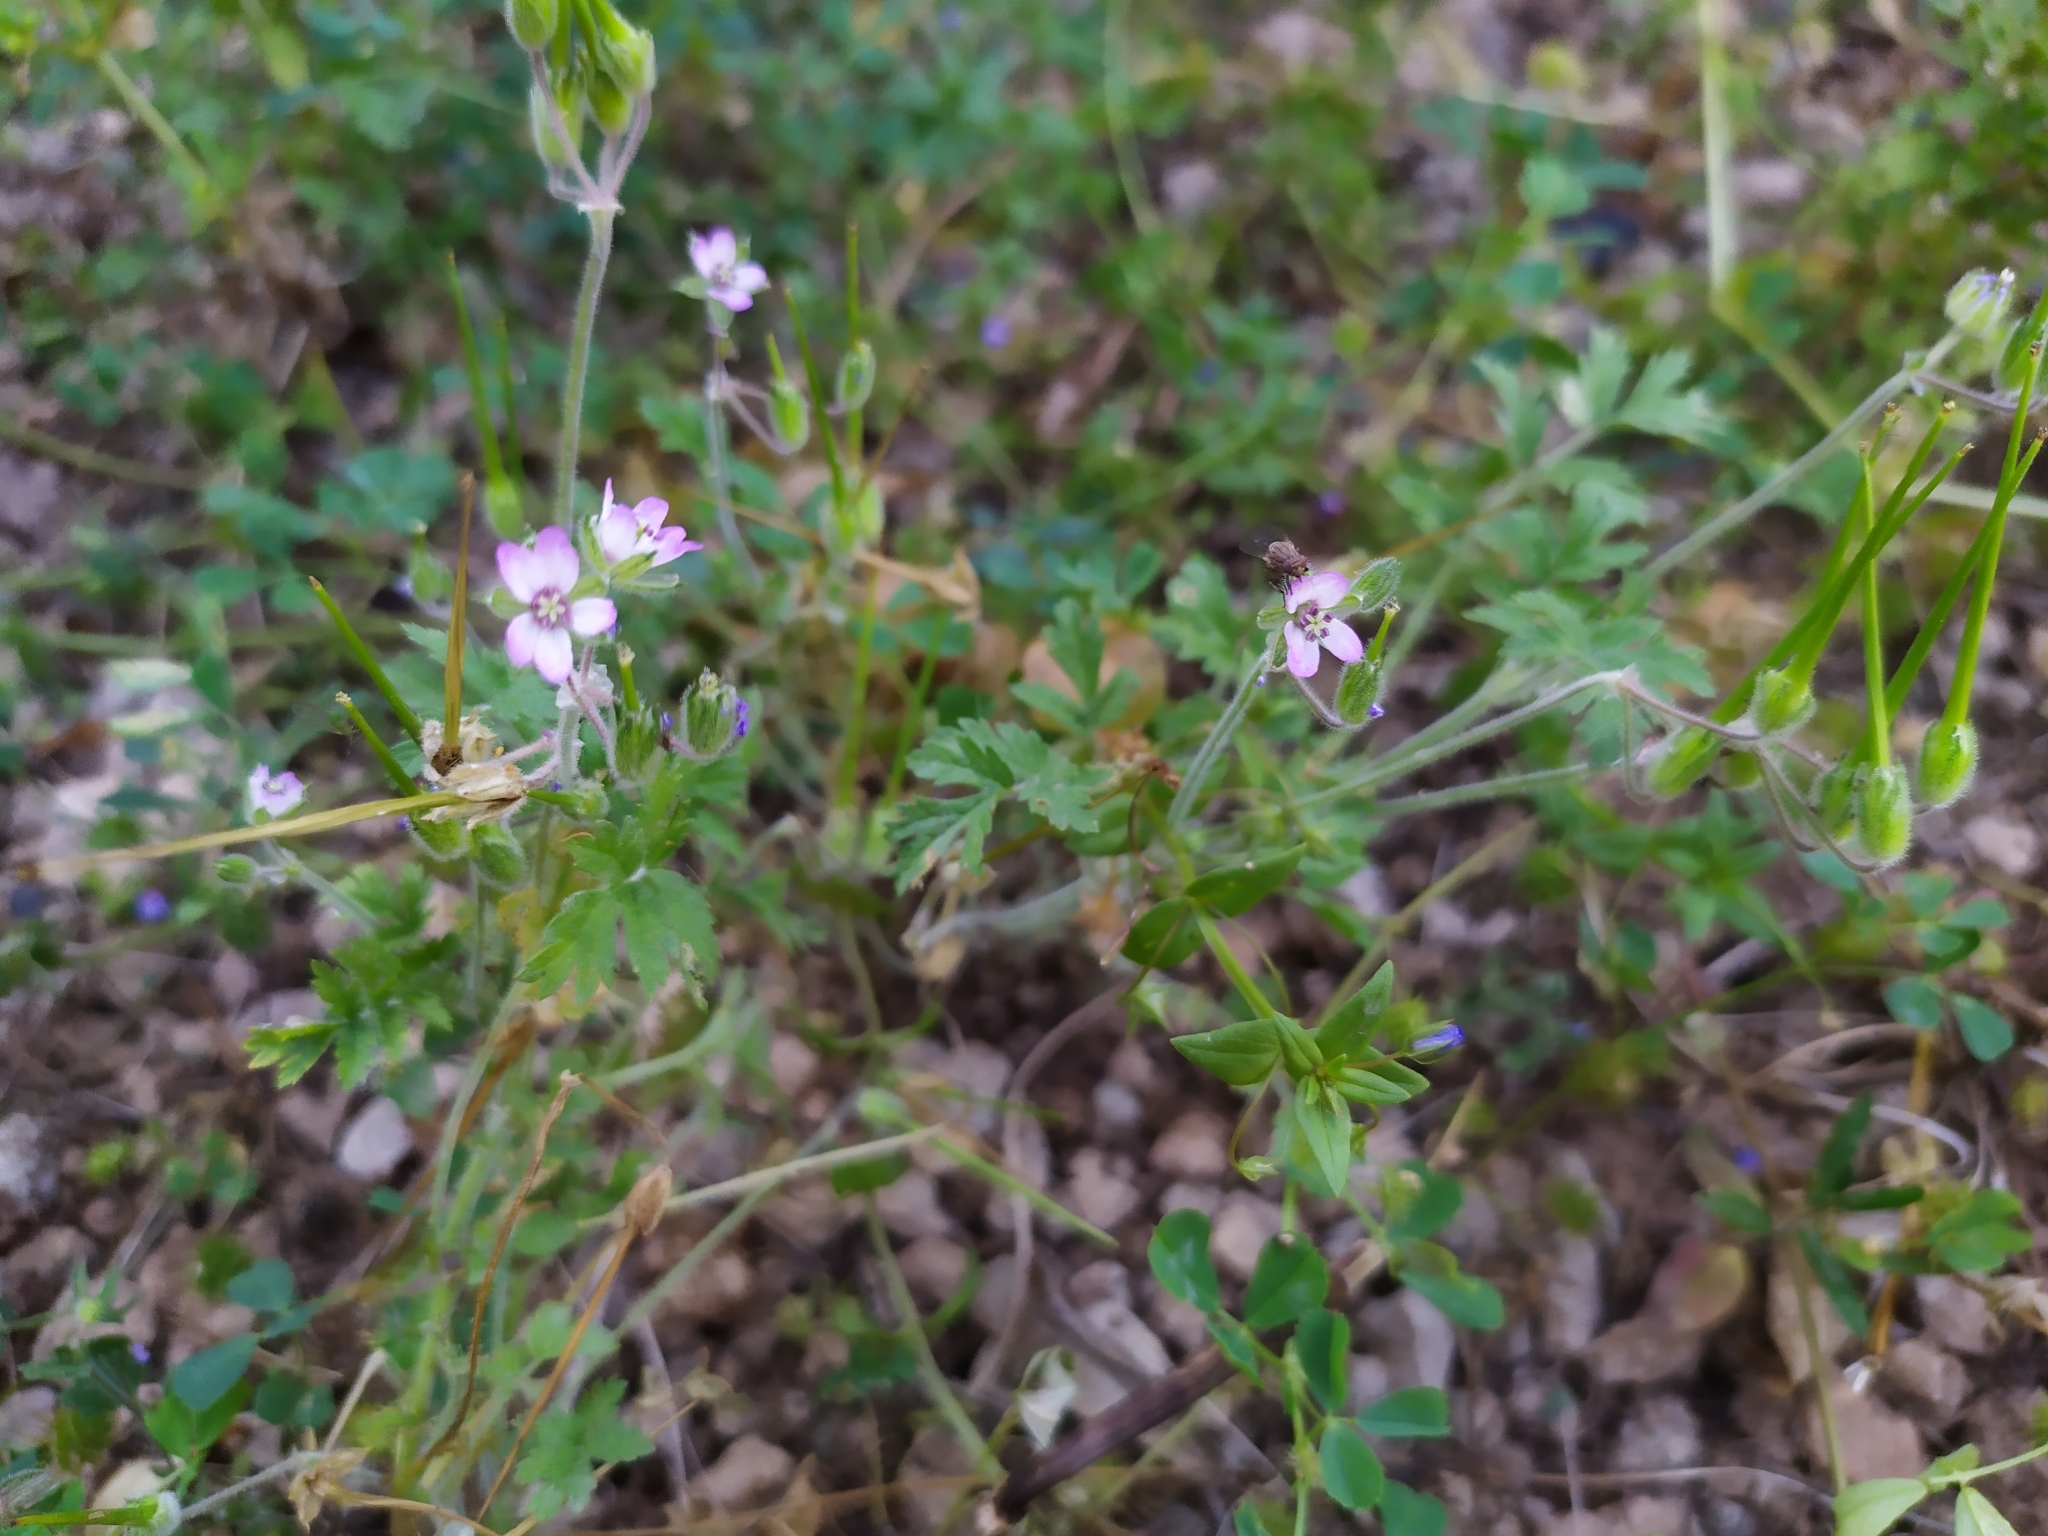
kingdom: Plantae
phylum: Tracheophyta
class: Magnoliopsida
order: Geraniales
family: Geraniaceae
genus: Erodium
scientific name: Erodium moschatum
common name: Musk stork's-bill
